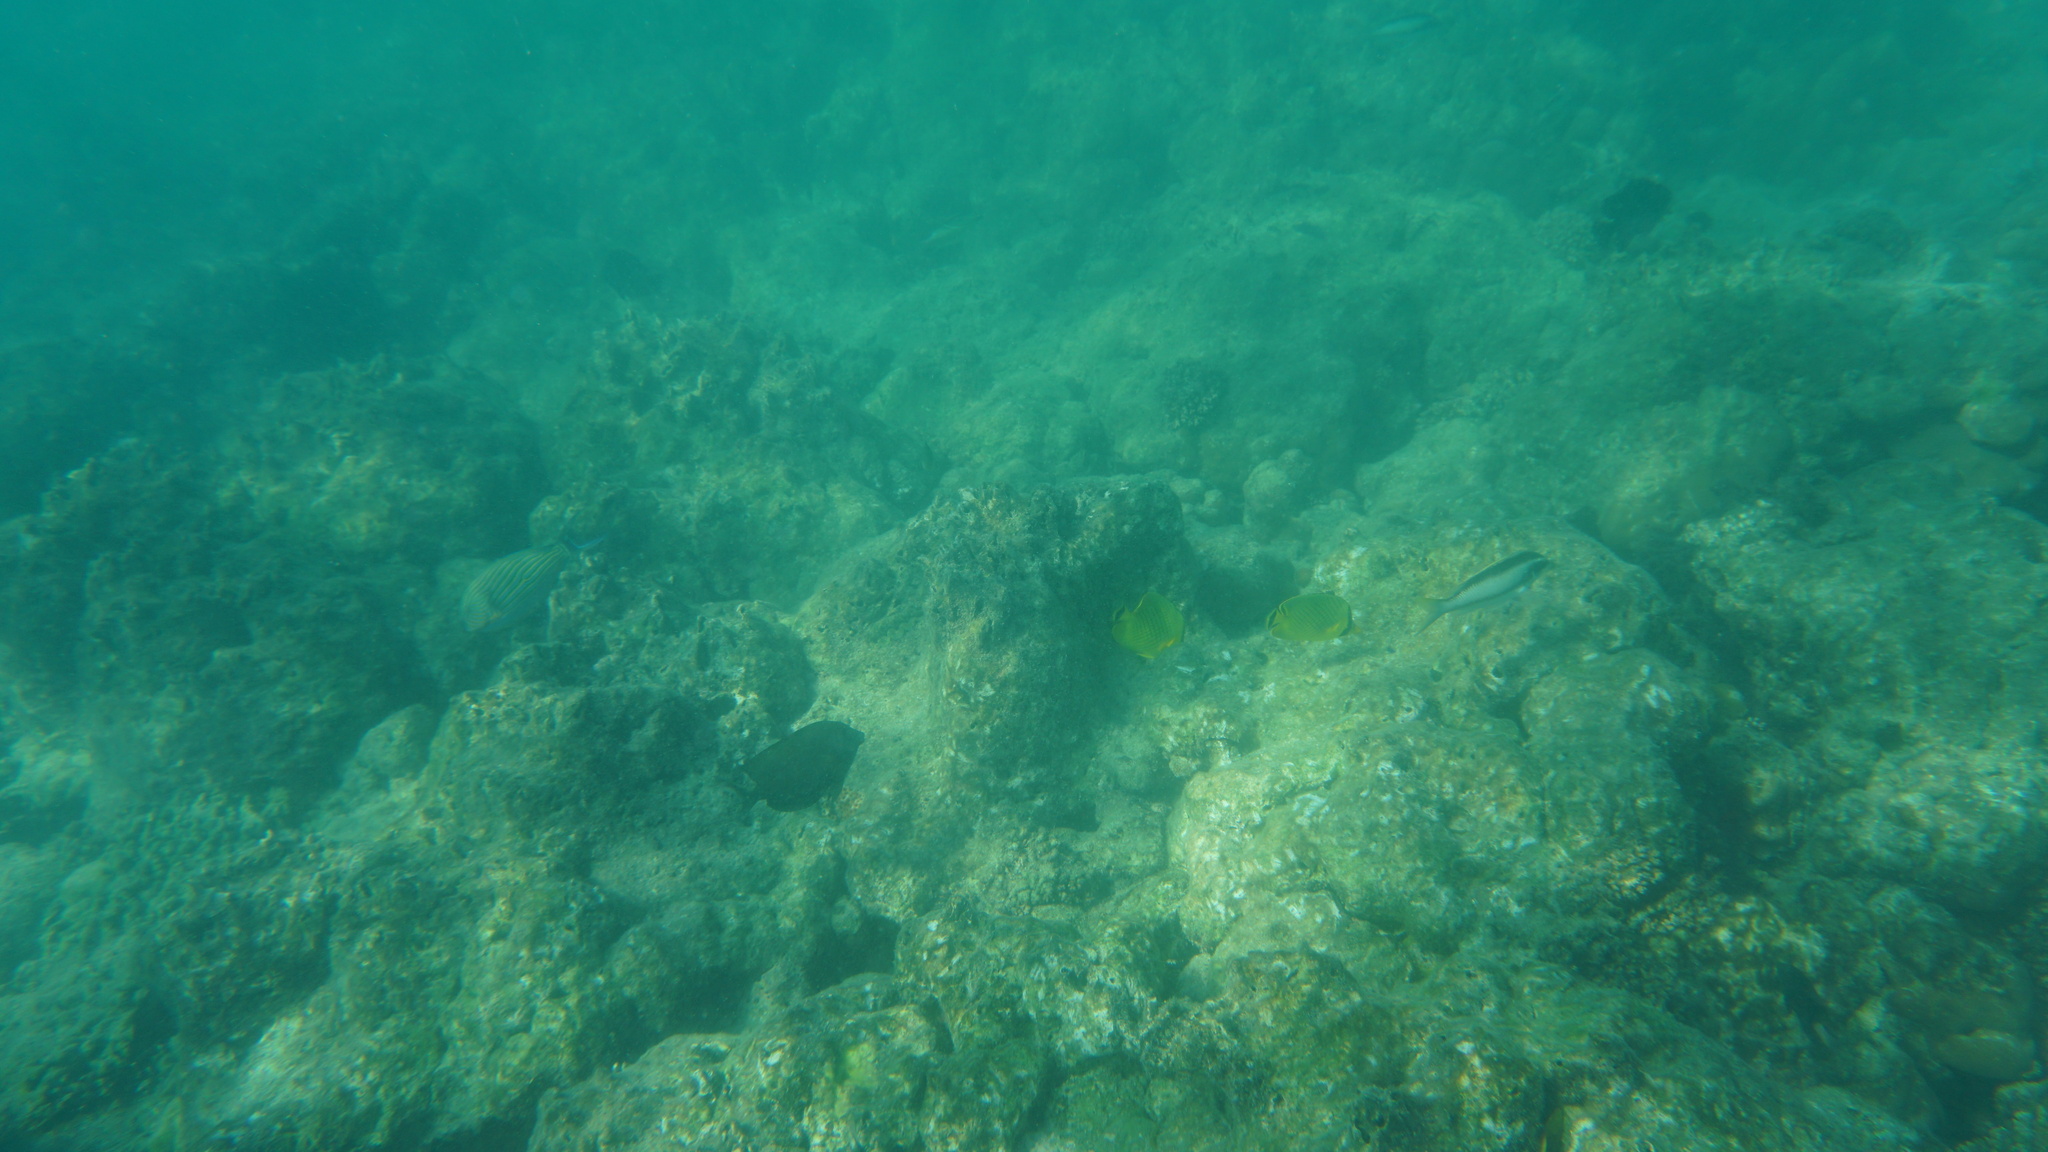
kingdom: Animalia
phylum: Chordata
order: Perciformes
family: Chaetodontidae
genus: Chaetodon
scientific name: Chaetodon rafflesii
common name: Latticed butterflyfish
